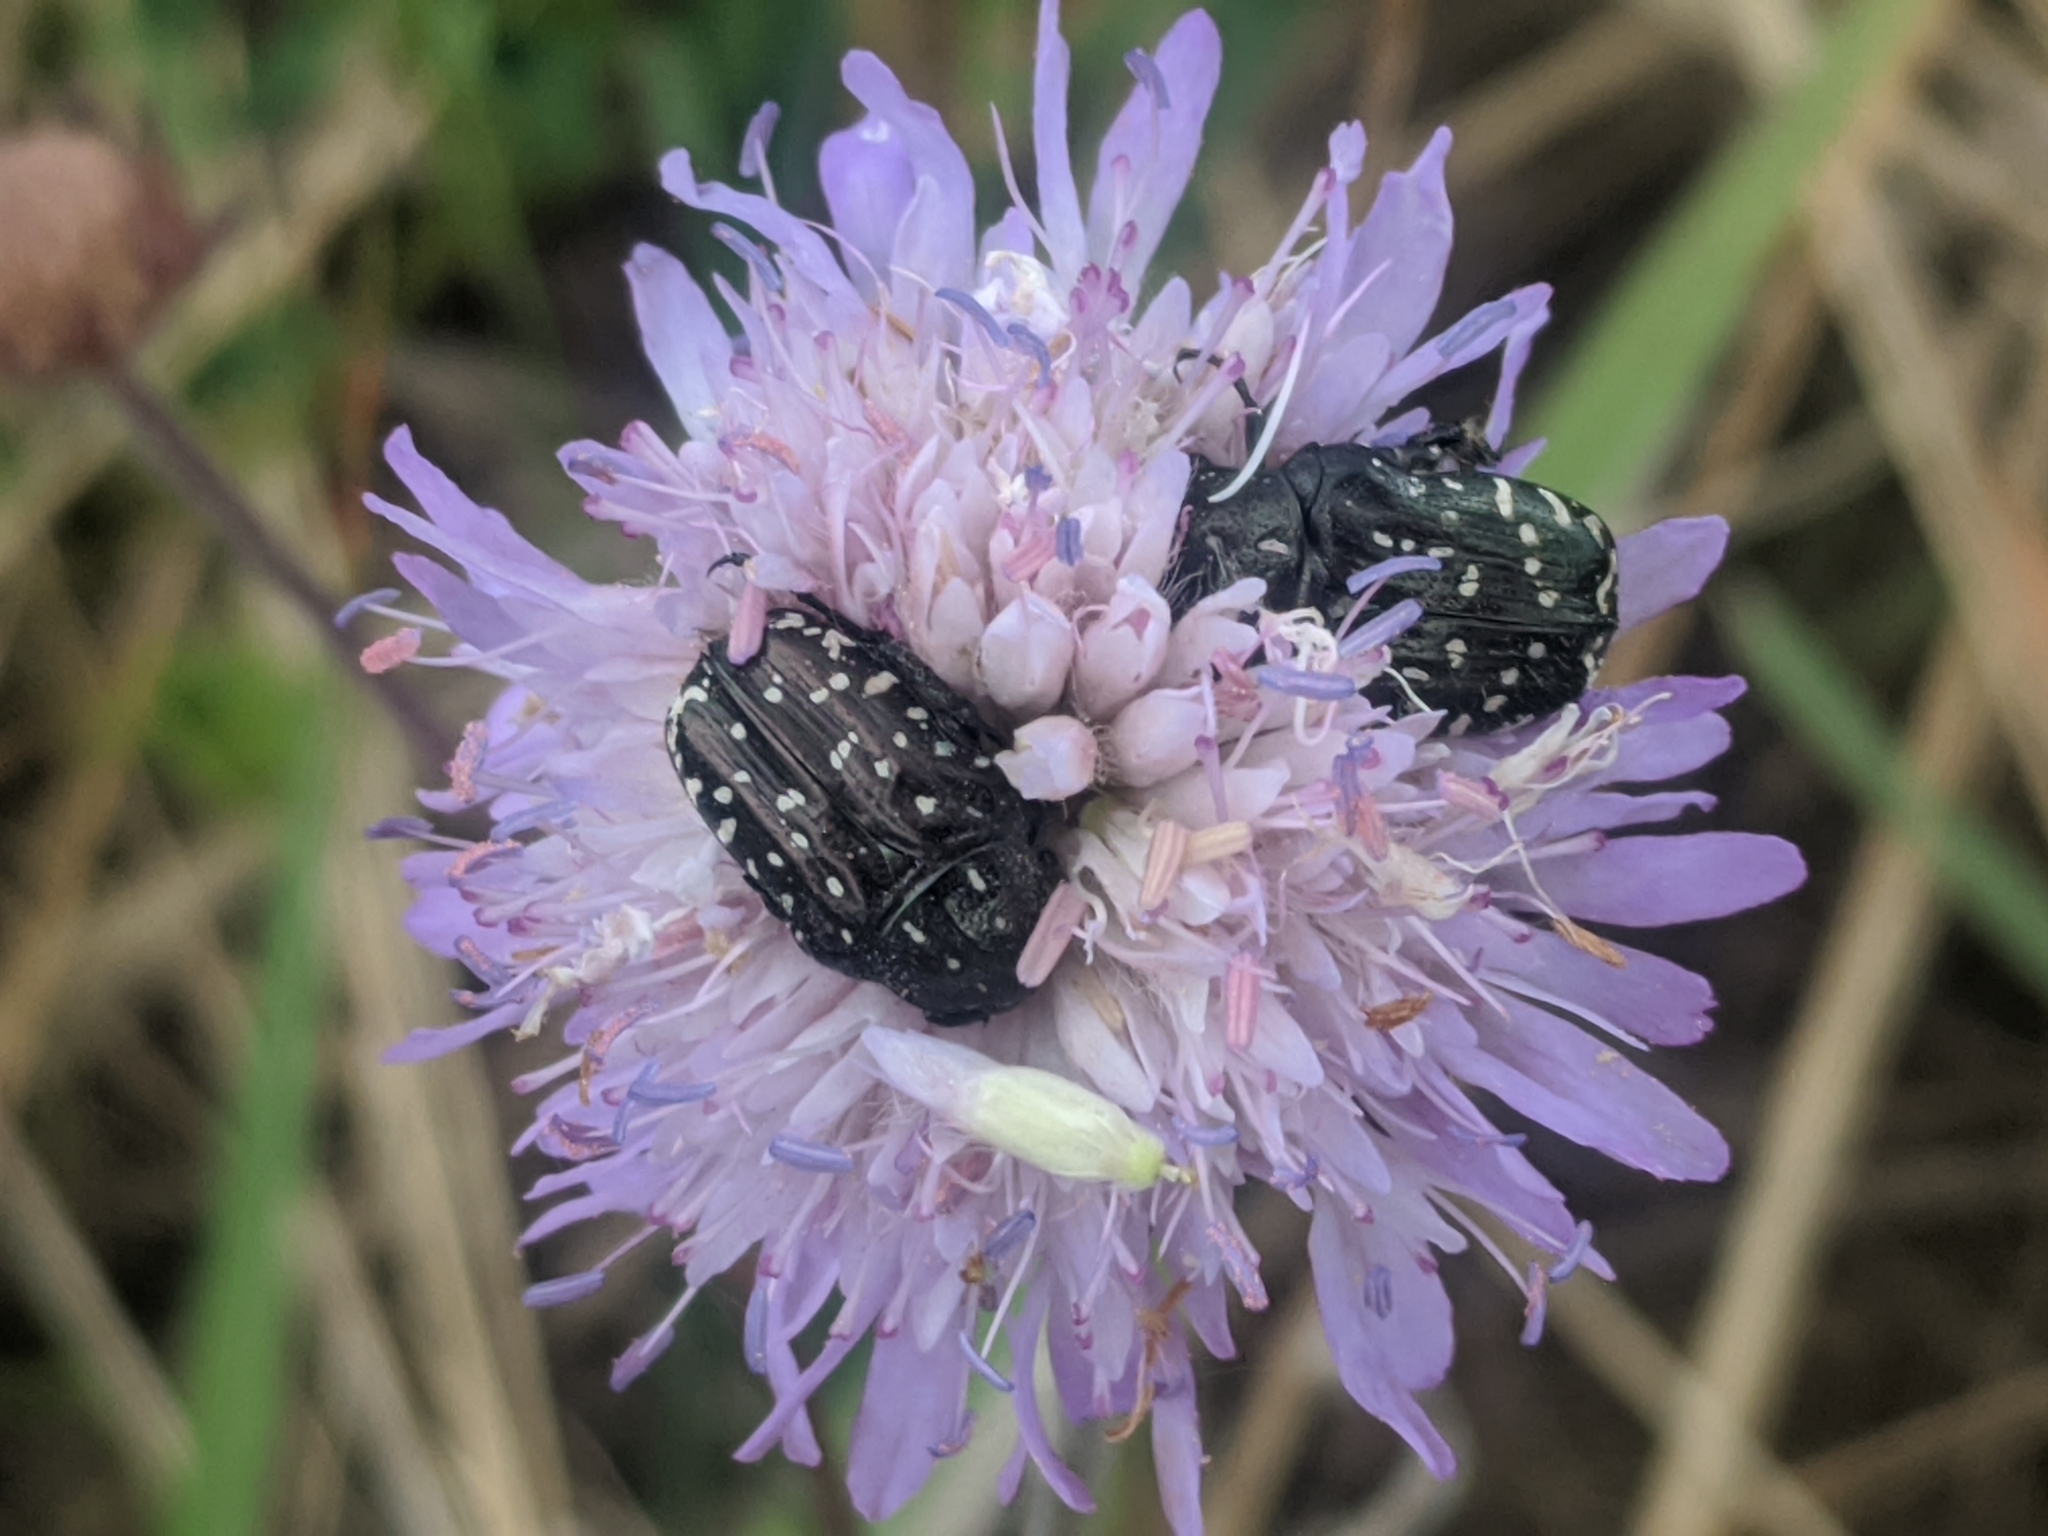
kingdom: Animalia
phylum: Arthropoda
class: Insecta
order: Coleoptera
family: Scarabaeidae
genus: Oxythyrea
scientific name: Oxythyrea funesta
